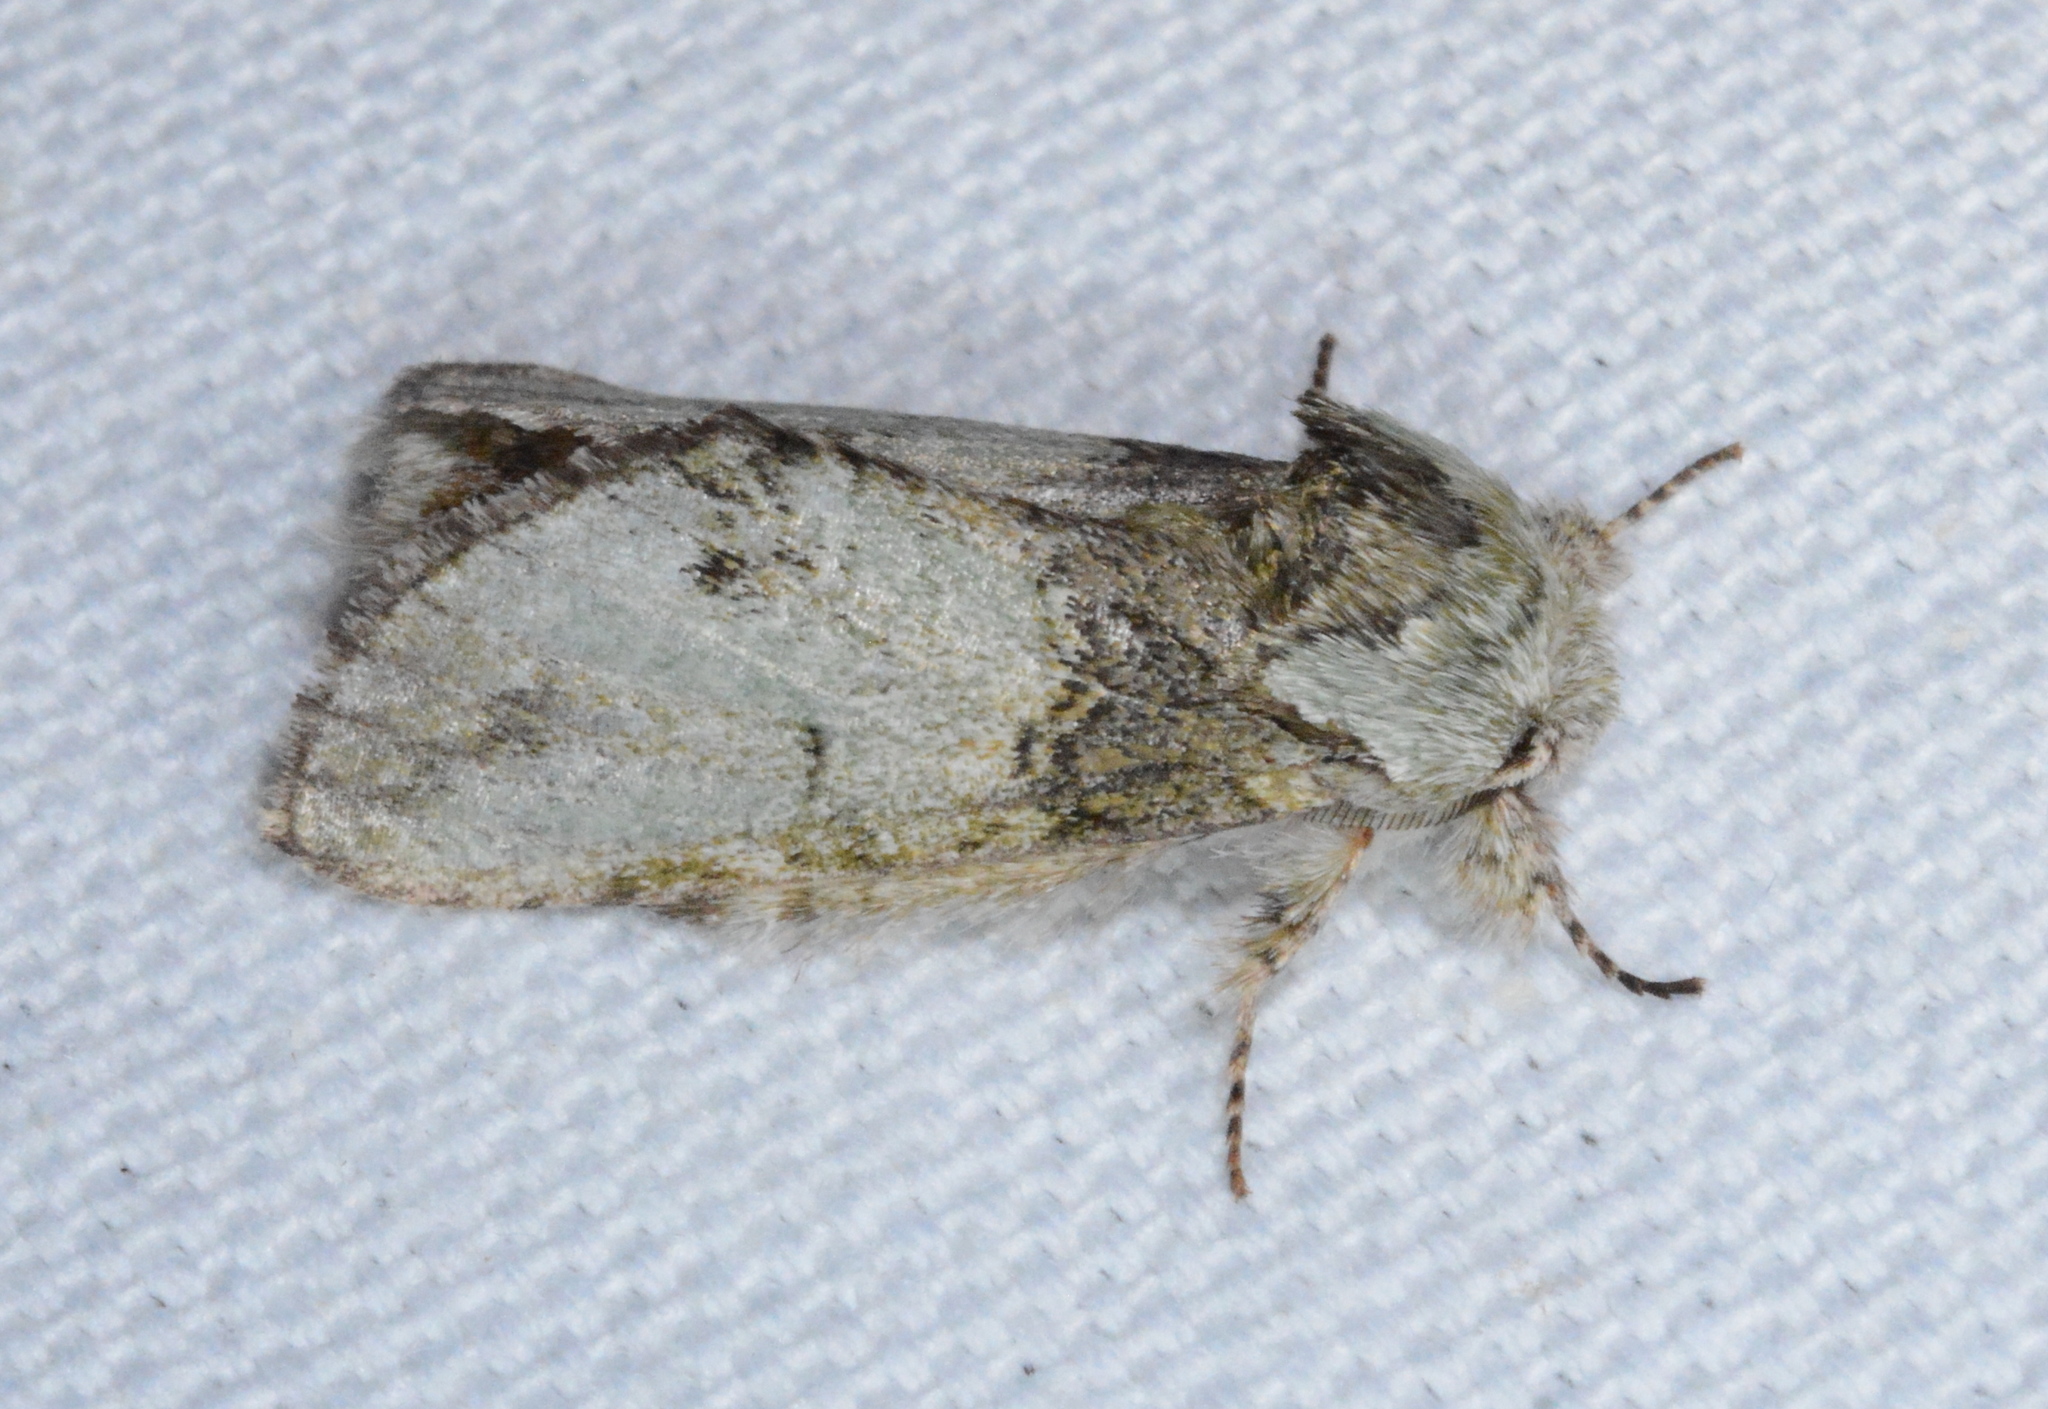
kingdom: Animalia
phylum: Arthropoda
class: Insecta
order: Lepidoptera
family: Notodontidae
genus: Macrurocampa
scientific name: Macrurocampa marthesia
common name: Mottled prominent
